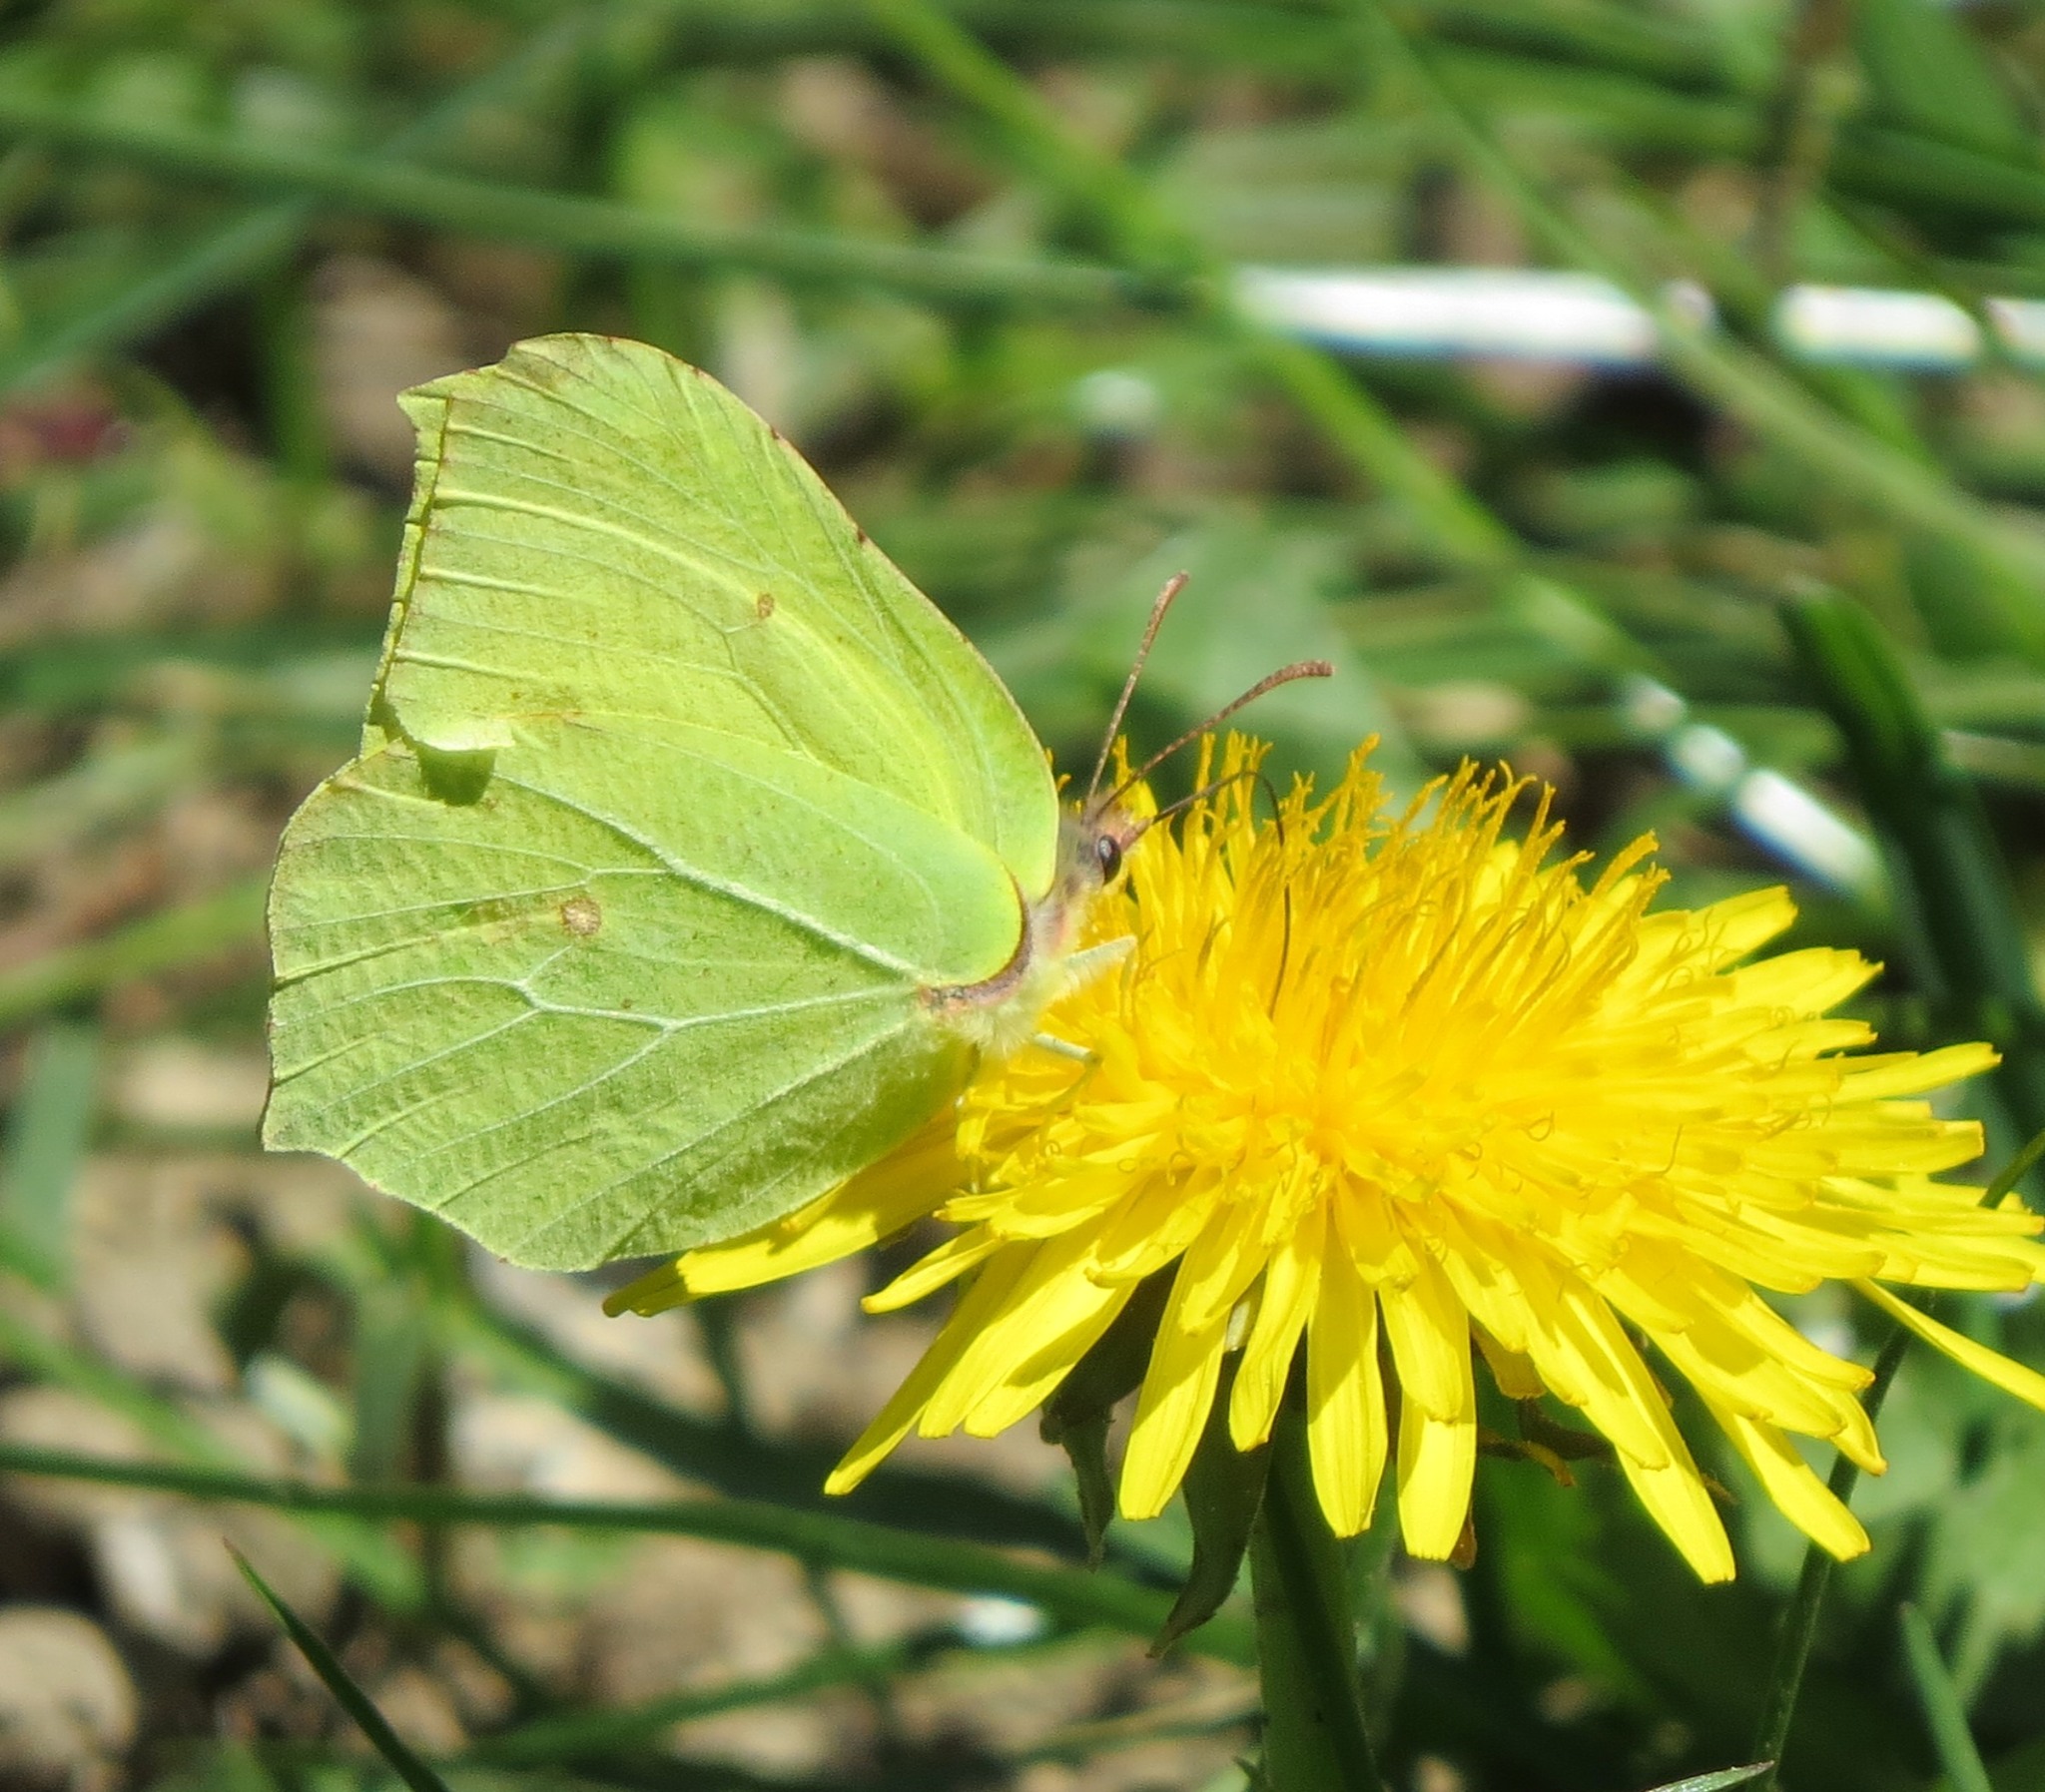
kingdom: Animalia
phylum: Arthropoda
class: Insecta
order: Lepidoptera
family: Pieridae
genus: Gonepteryx
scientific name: Gonepteryx rhamni
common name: Brimstone
